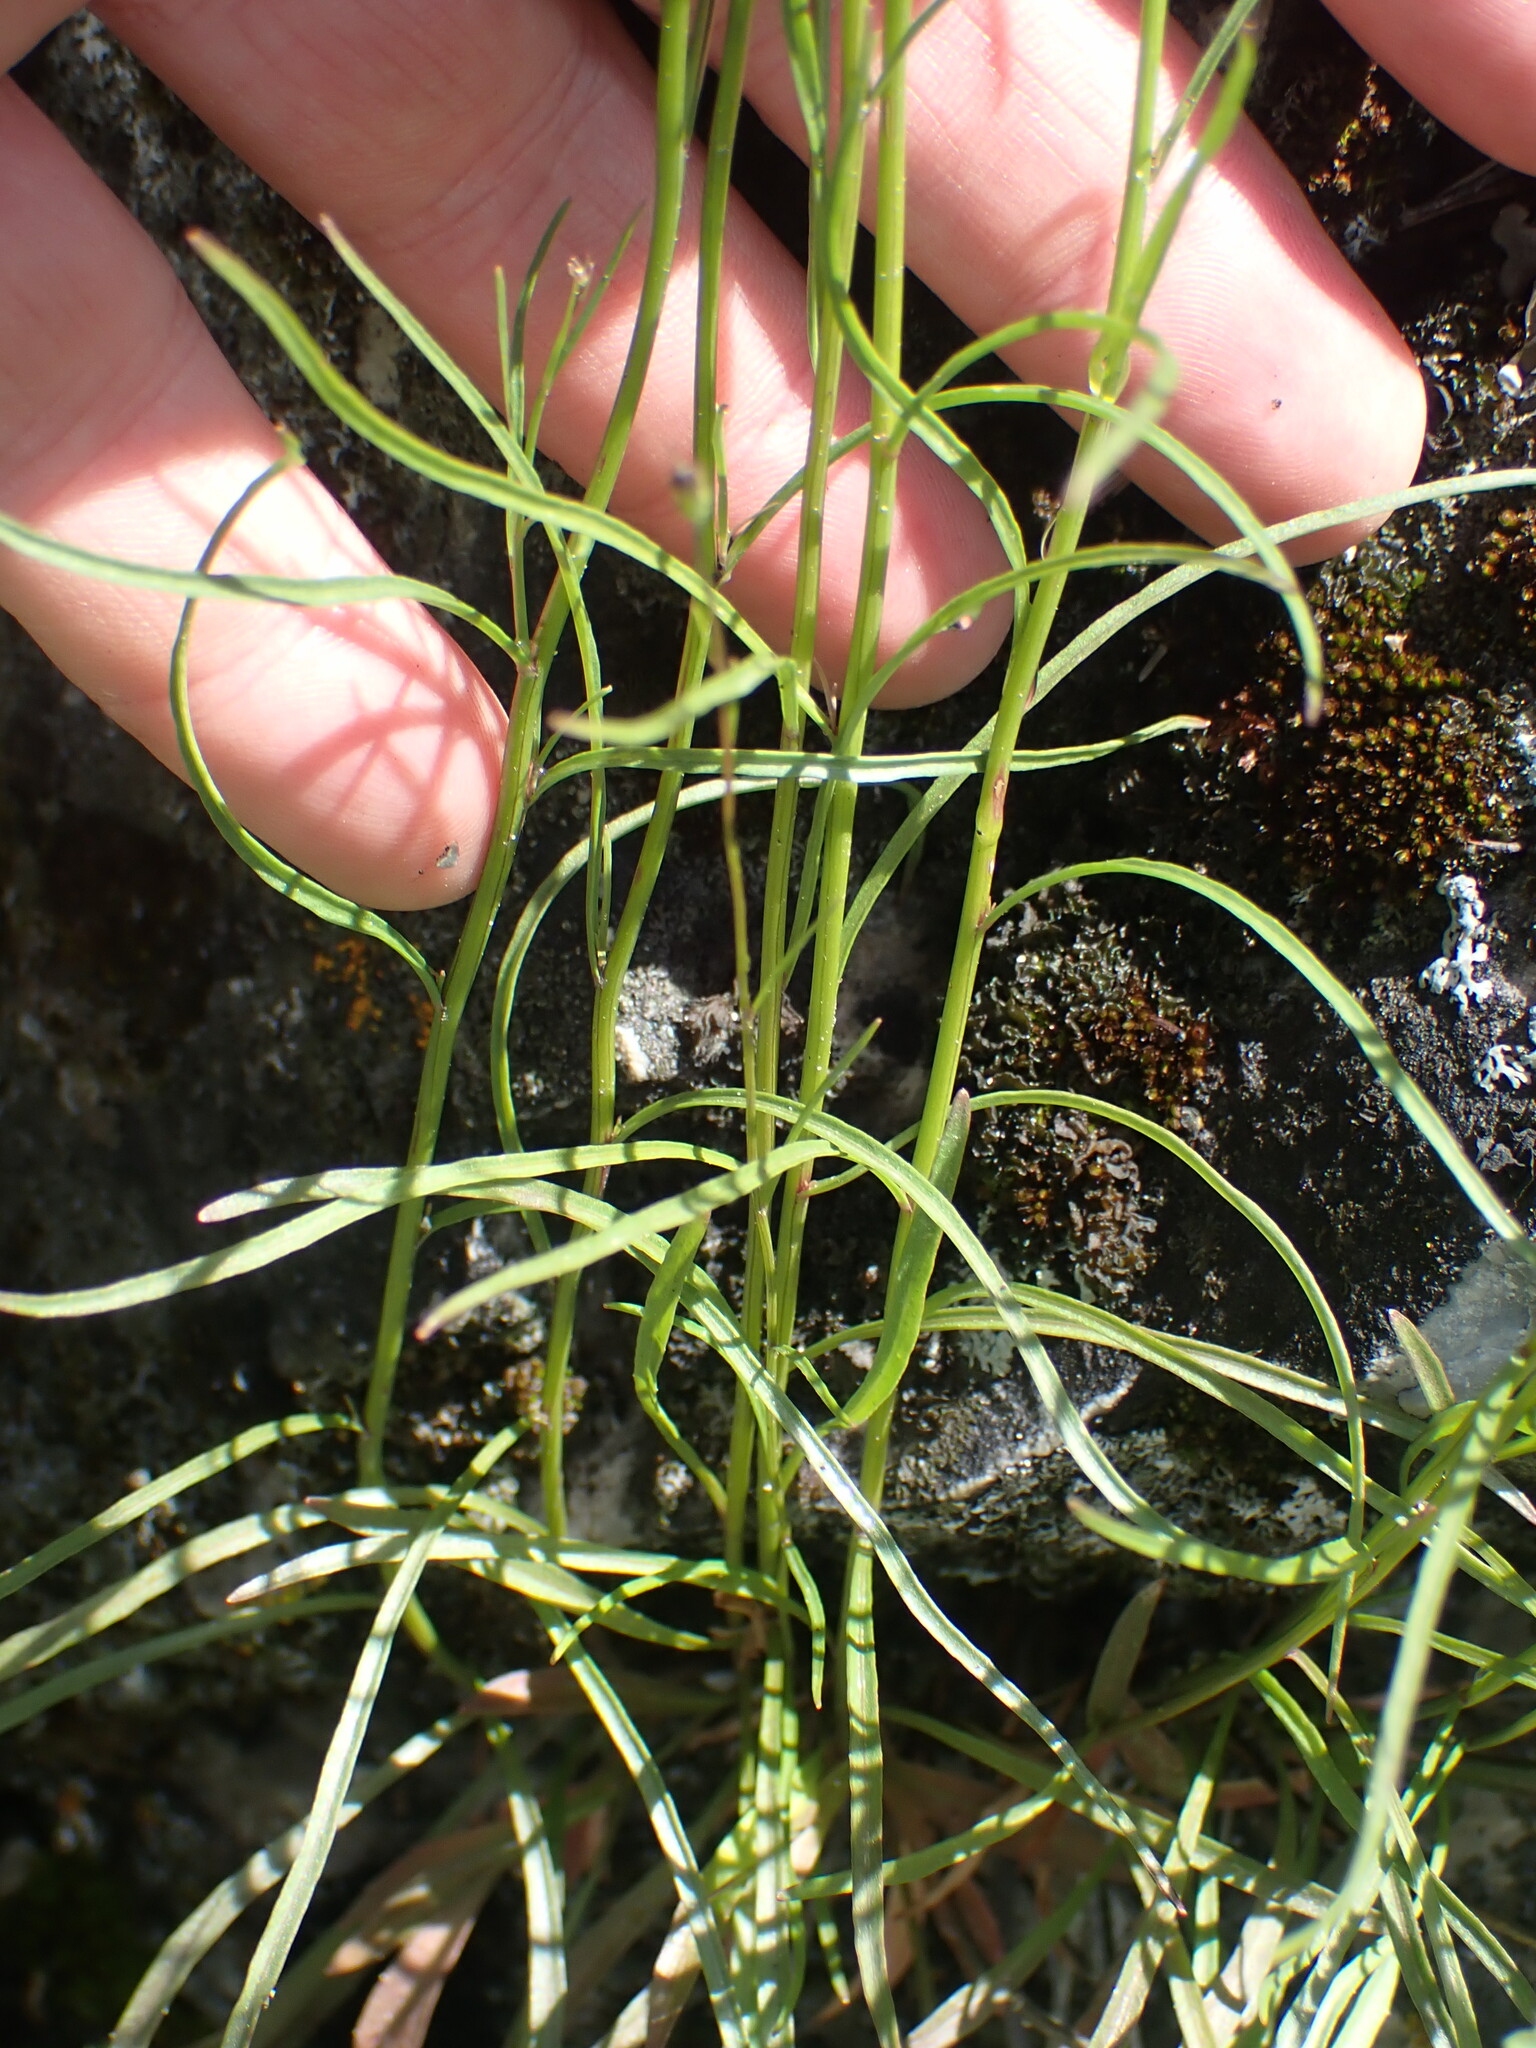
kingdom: Plantae
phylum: Tracheophyta
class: Magnoliopsida
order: Asterales
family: Campanulaceae
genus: Campanula
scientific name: Campanula alaskana
